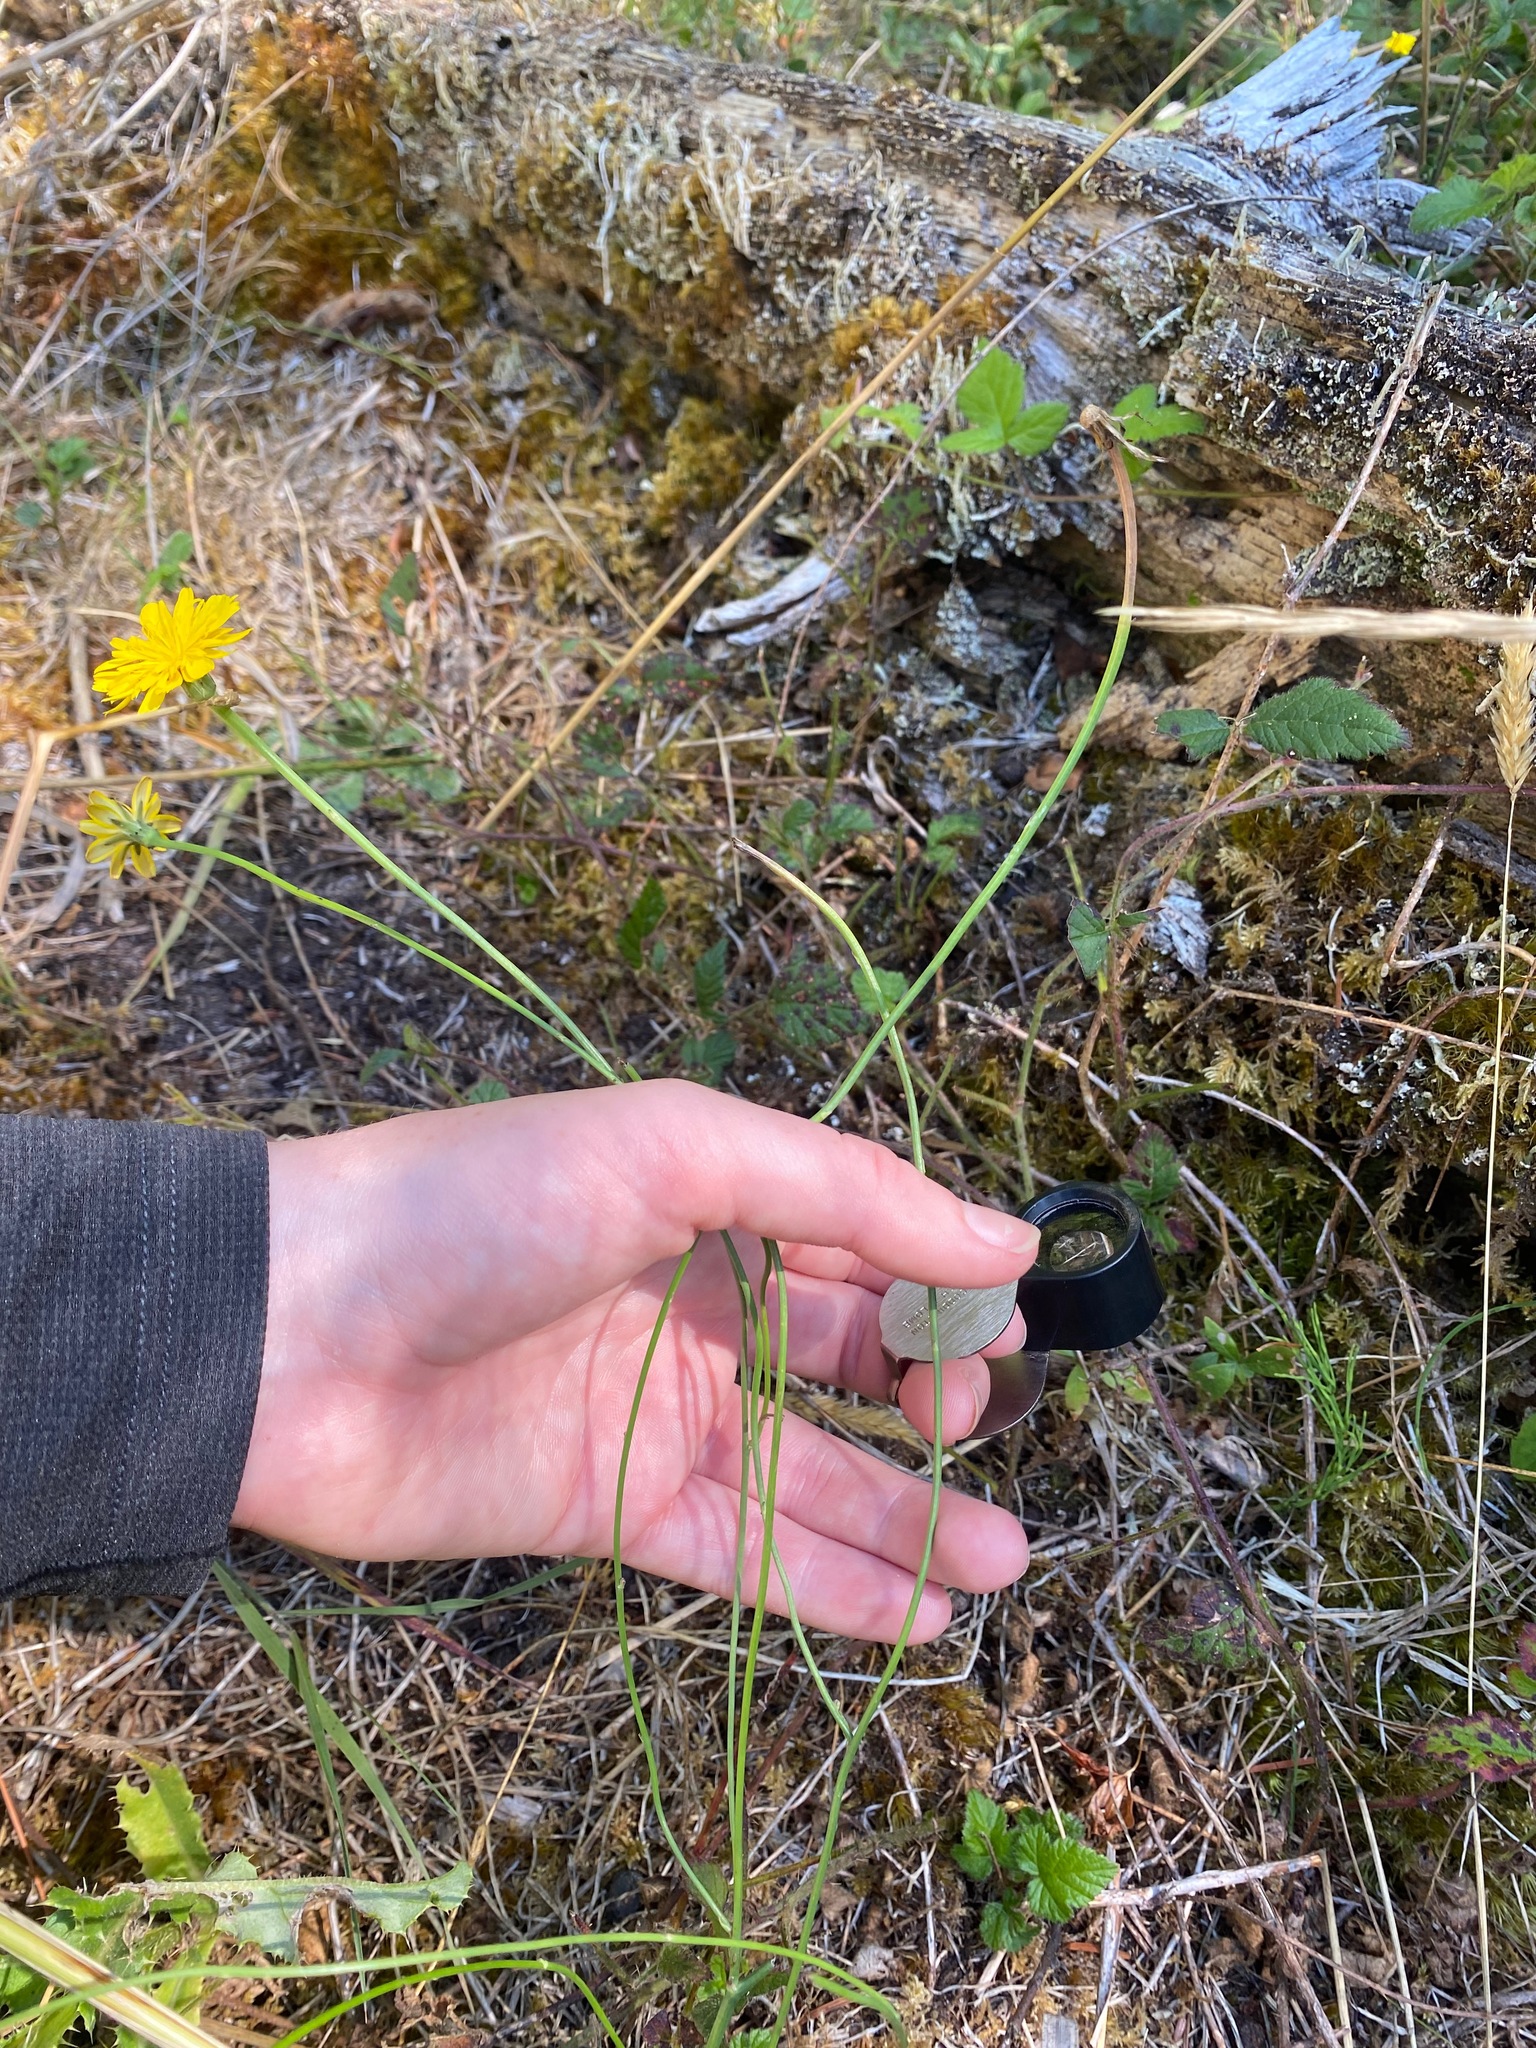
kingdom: Plantae
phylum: Tracheophyta
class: Magnoliopsida
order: Asterales
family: Asteraceae
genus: Hypochaeris
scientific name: Hypochaeris radicata
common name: Flatweed
